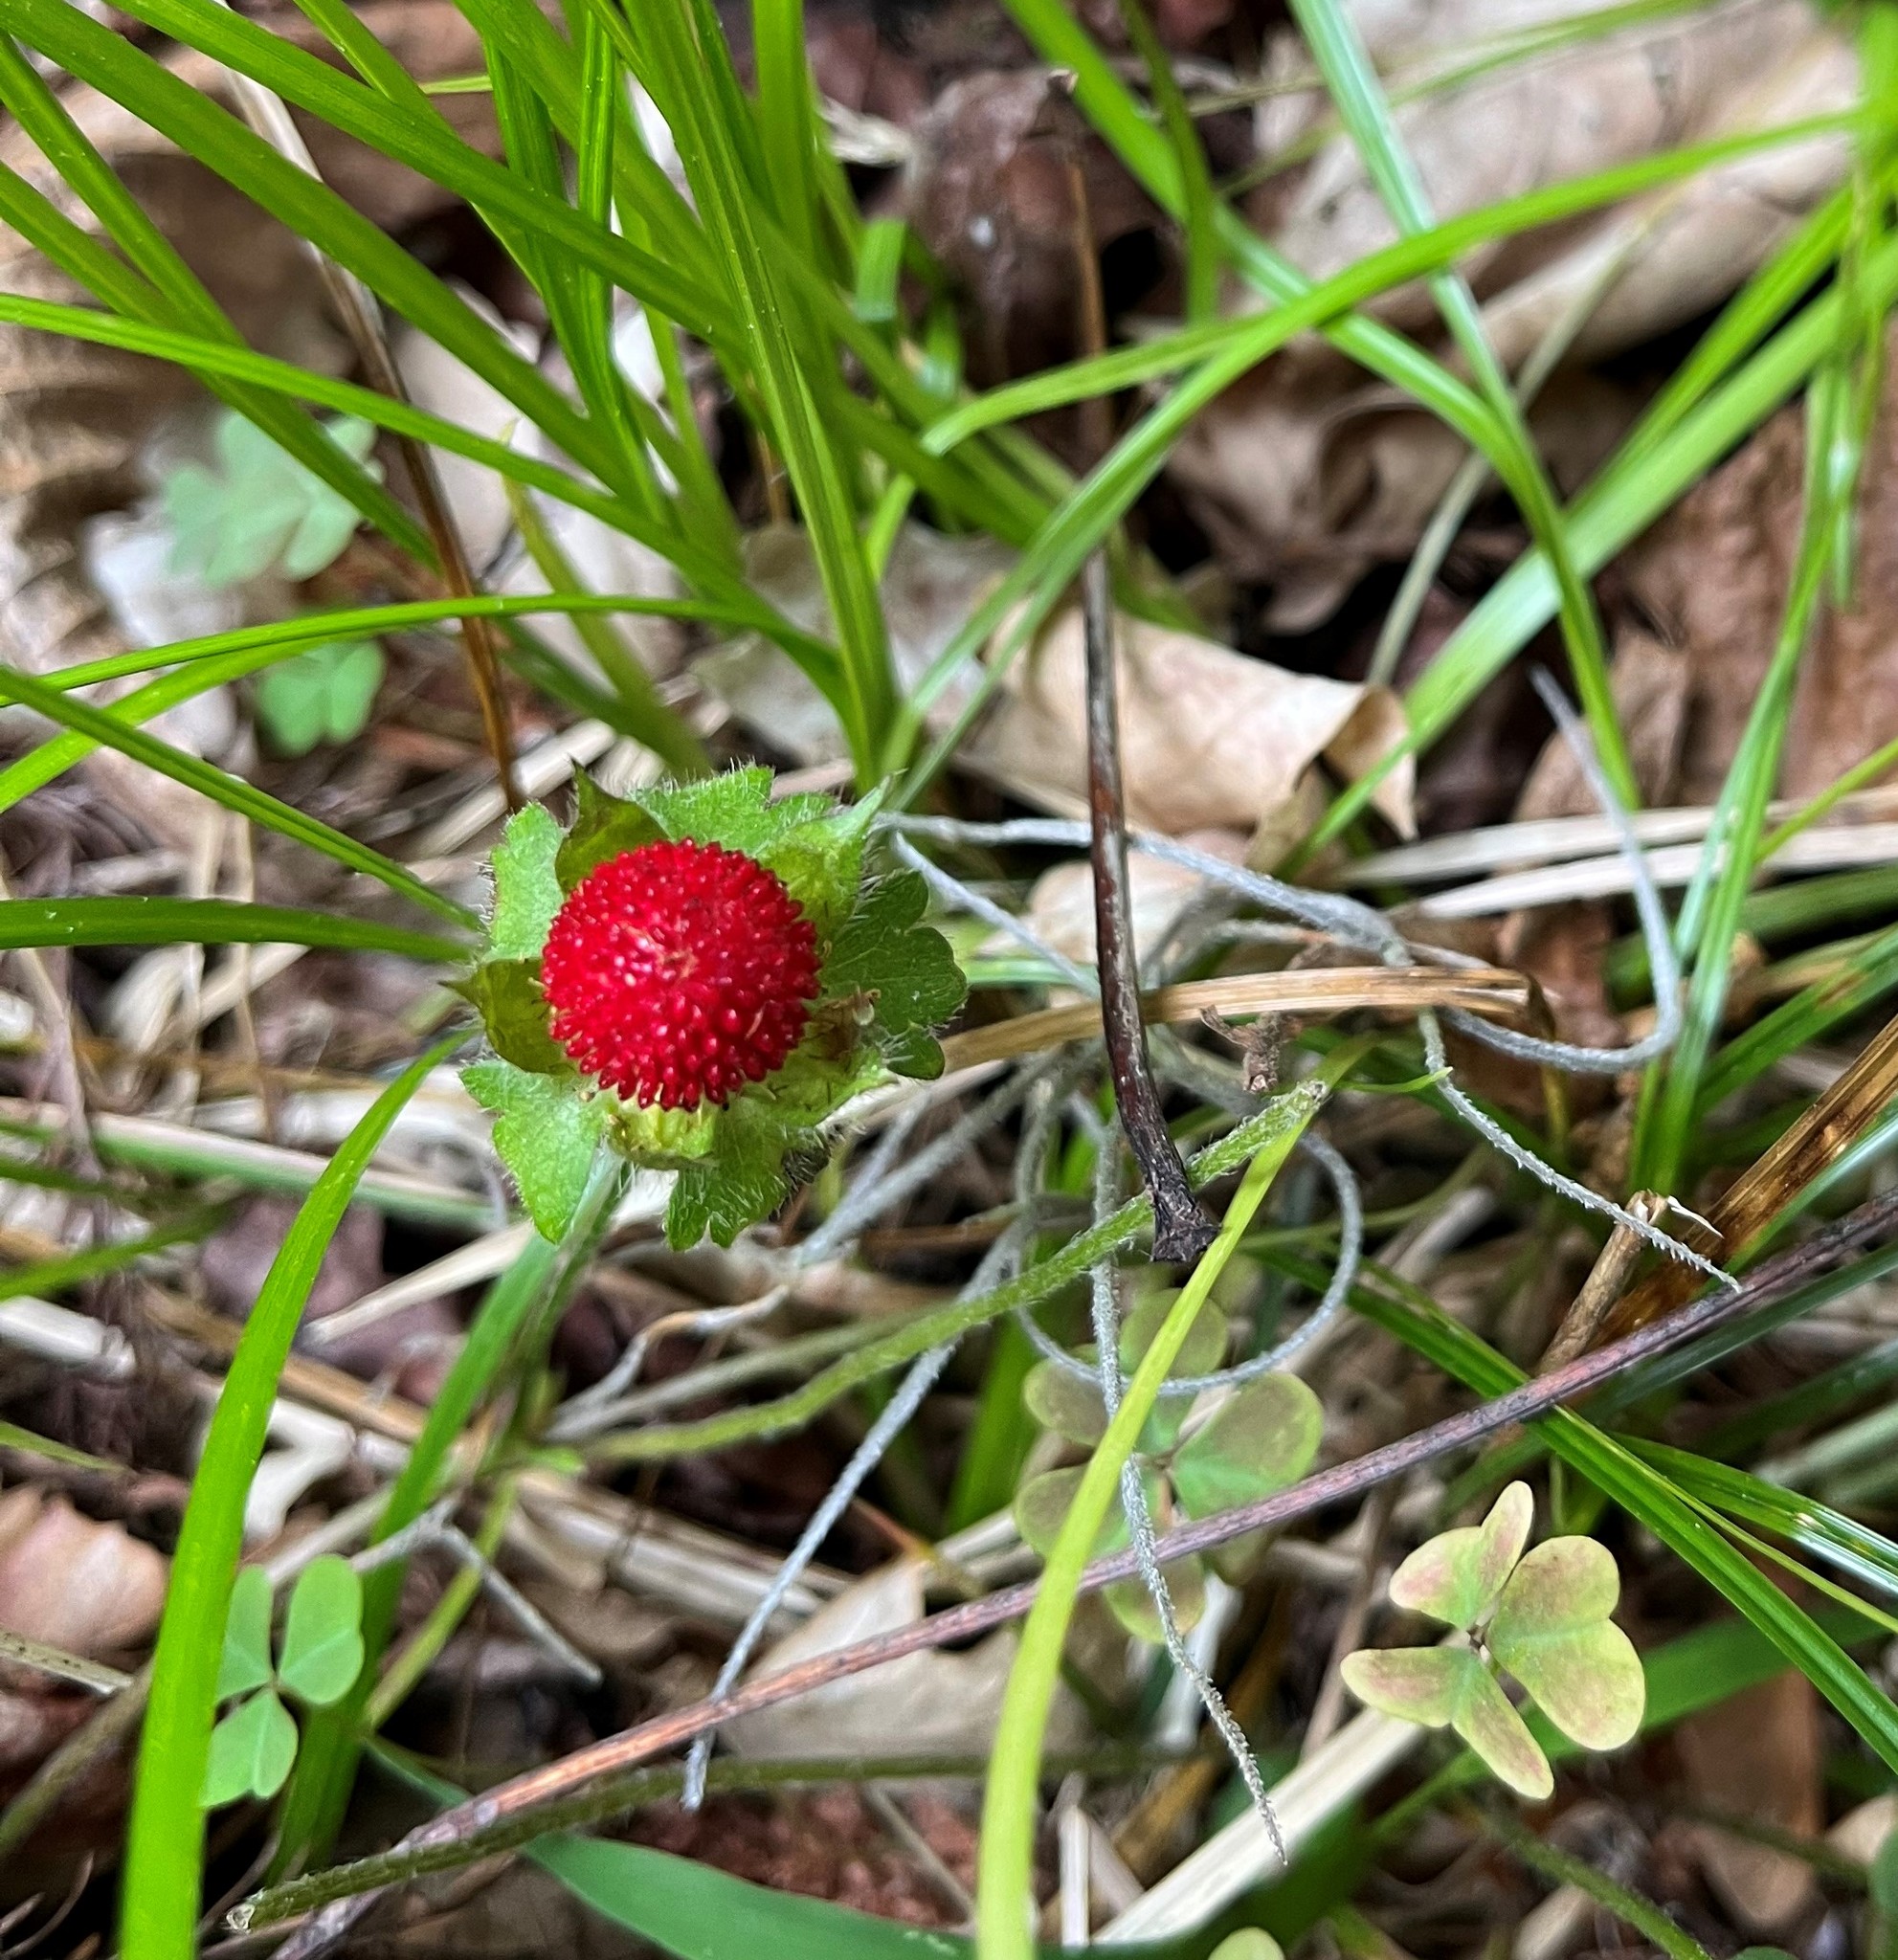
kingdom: Plantae
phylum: Tracheophyta
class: Magnoliopsida
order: Rosales
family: Rosaceae
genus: Potentilla
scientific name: Potentilla indica
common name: Yellow-flowered strawberry
